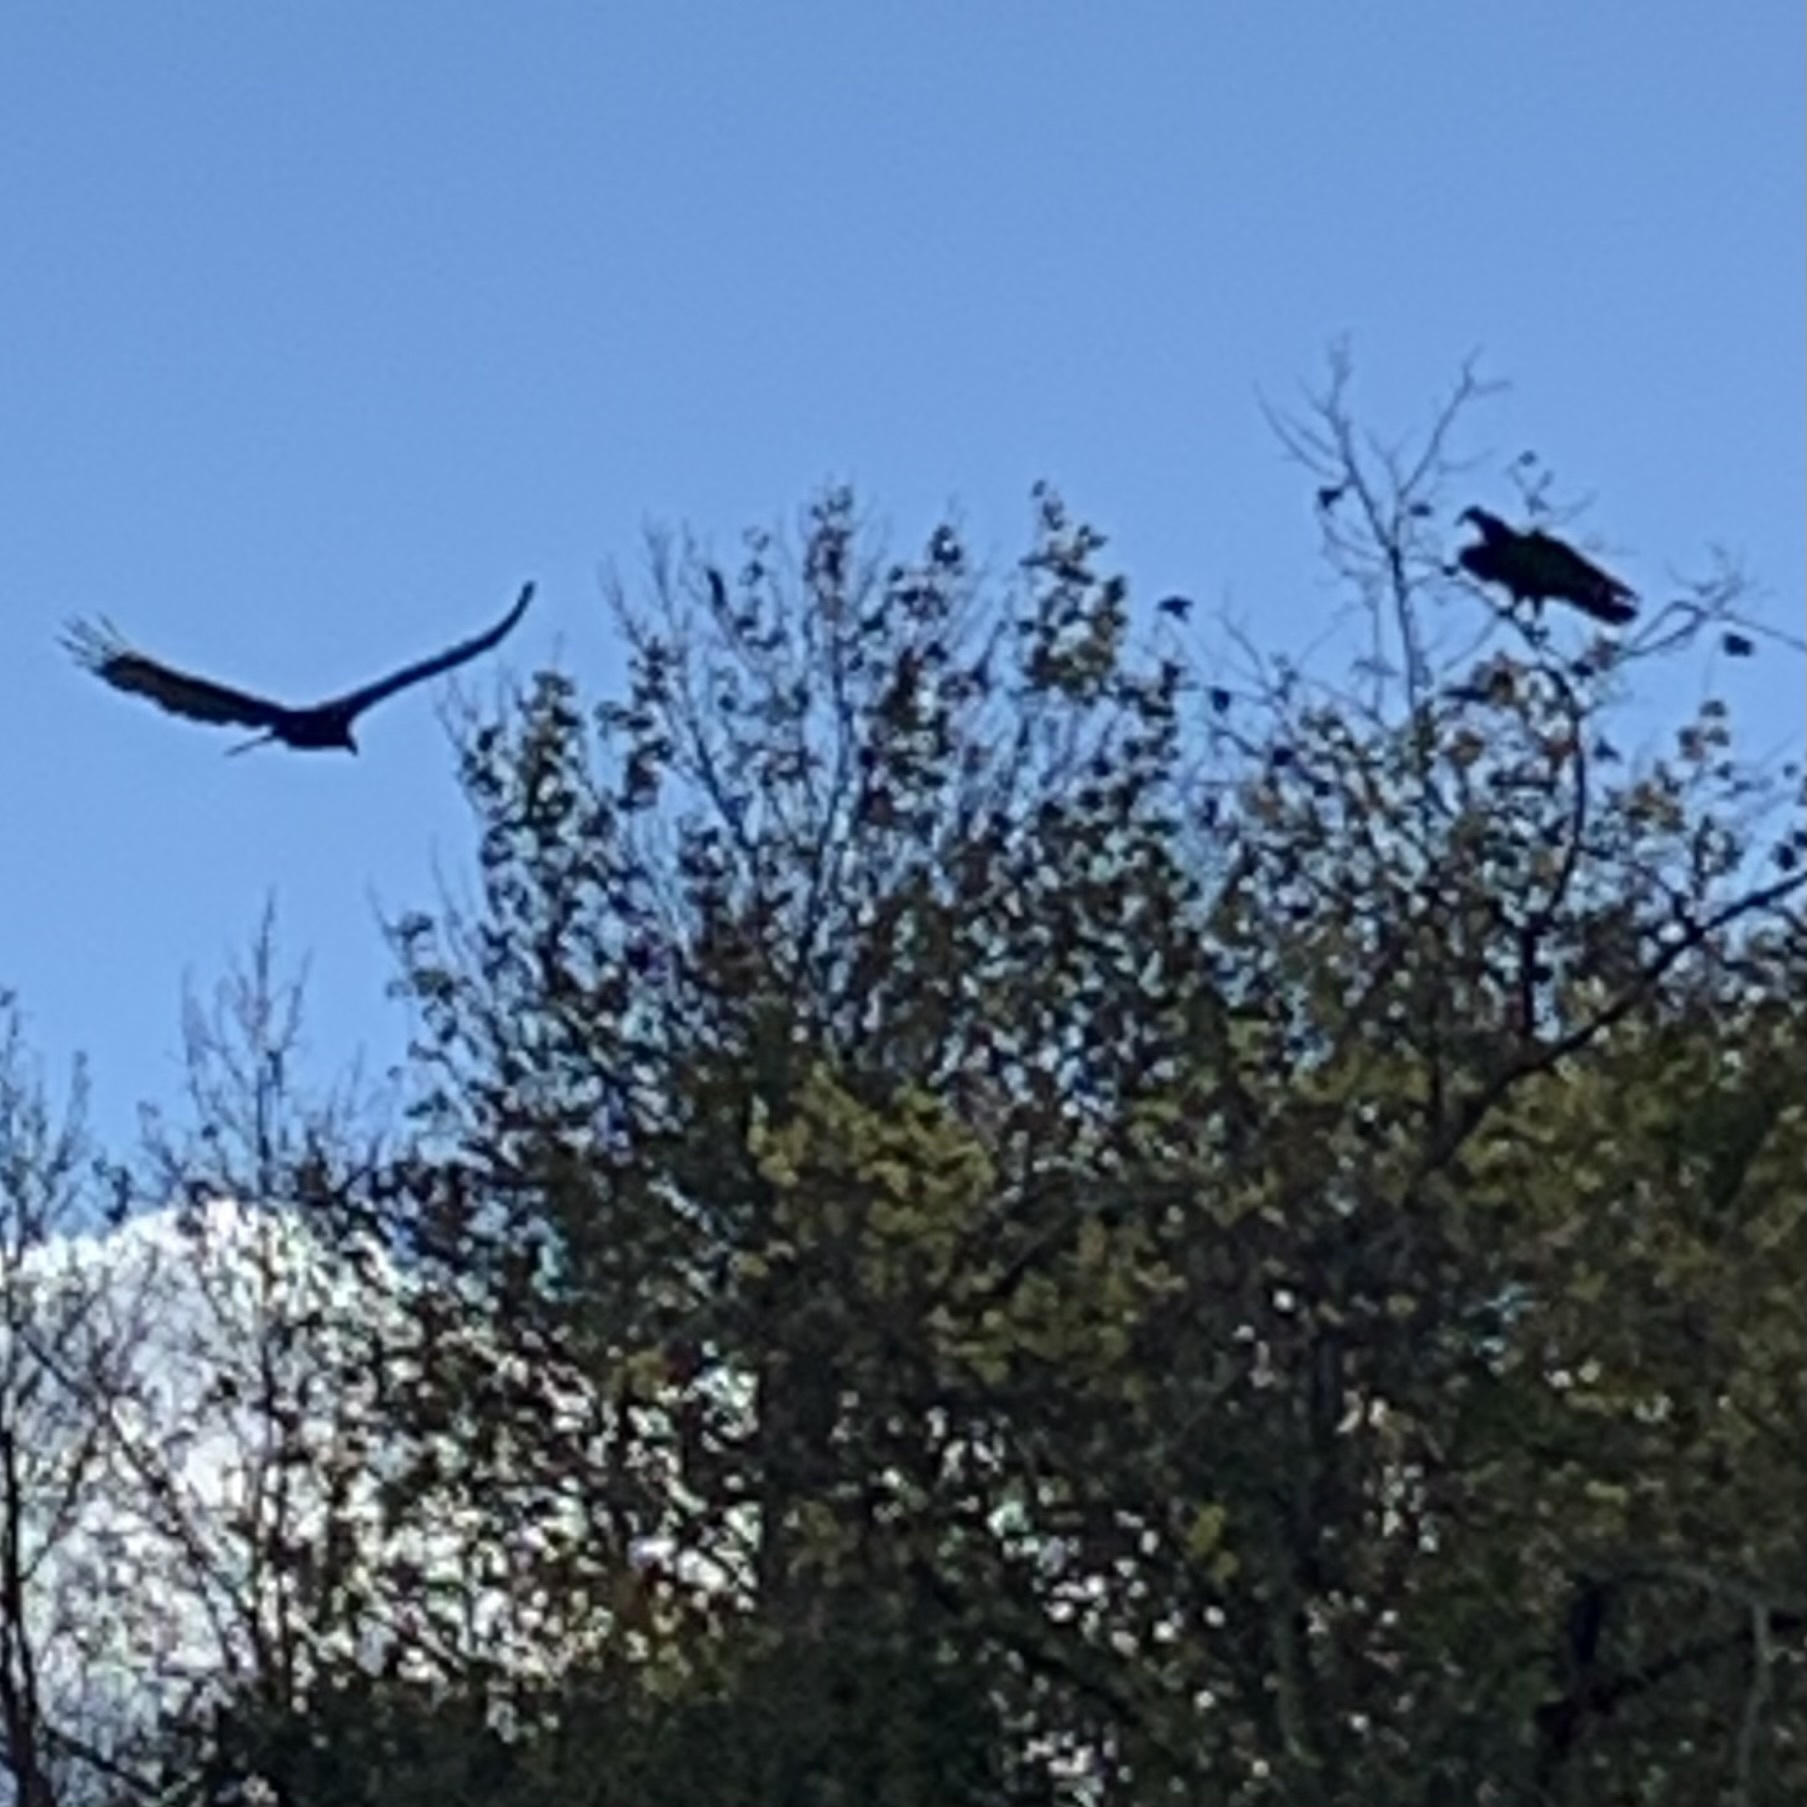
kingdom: Animalia
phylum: Chordata
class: Aves
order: Accipitriformes
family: Cathartidae
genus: Cathartes
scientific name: Cathartes aura
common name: Turkey vulture
